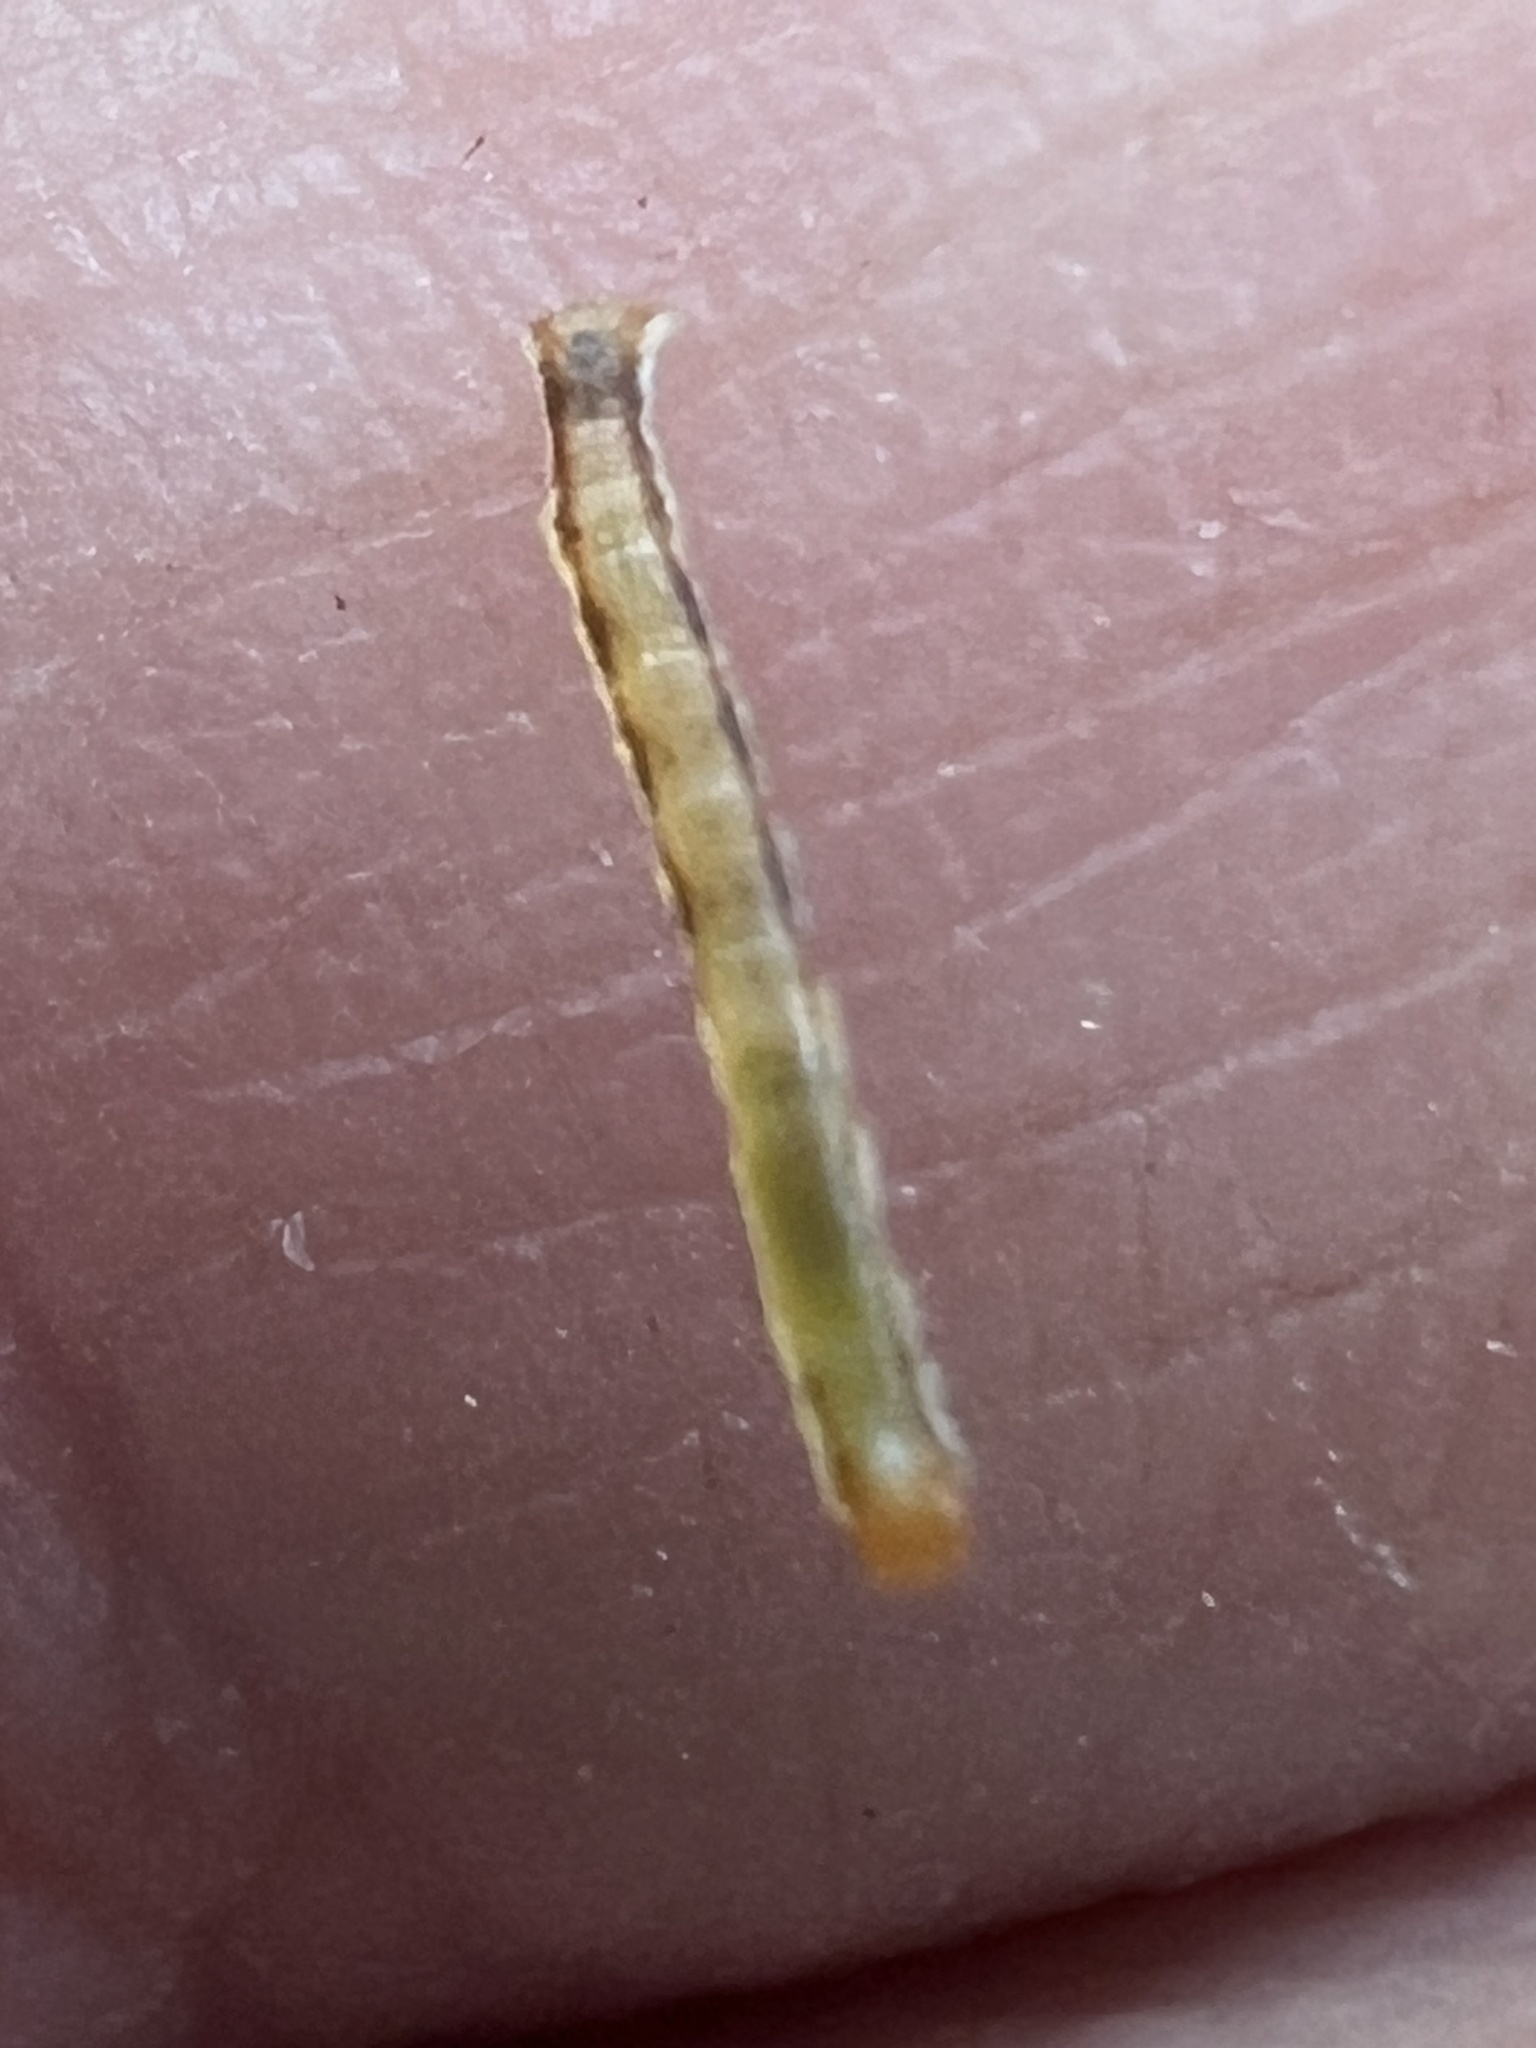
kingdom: Animalia
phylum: Arthropoda
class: Insecta
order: Lepidoptera
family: Geometridae
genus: Cleora
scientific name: Cleora scriptaria
